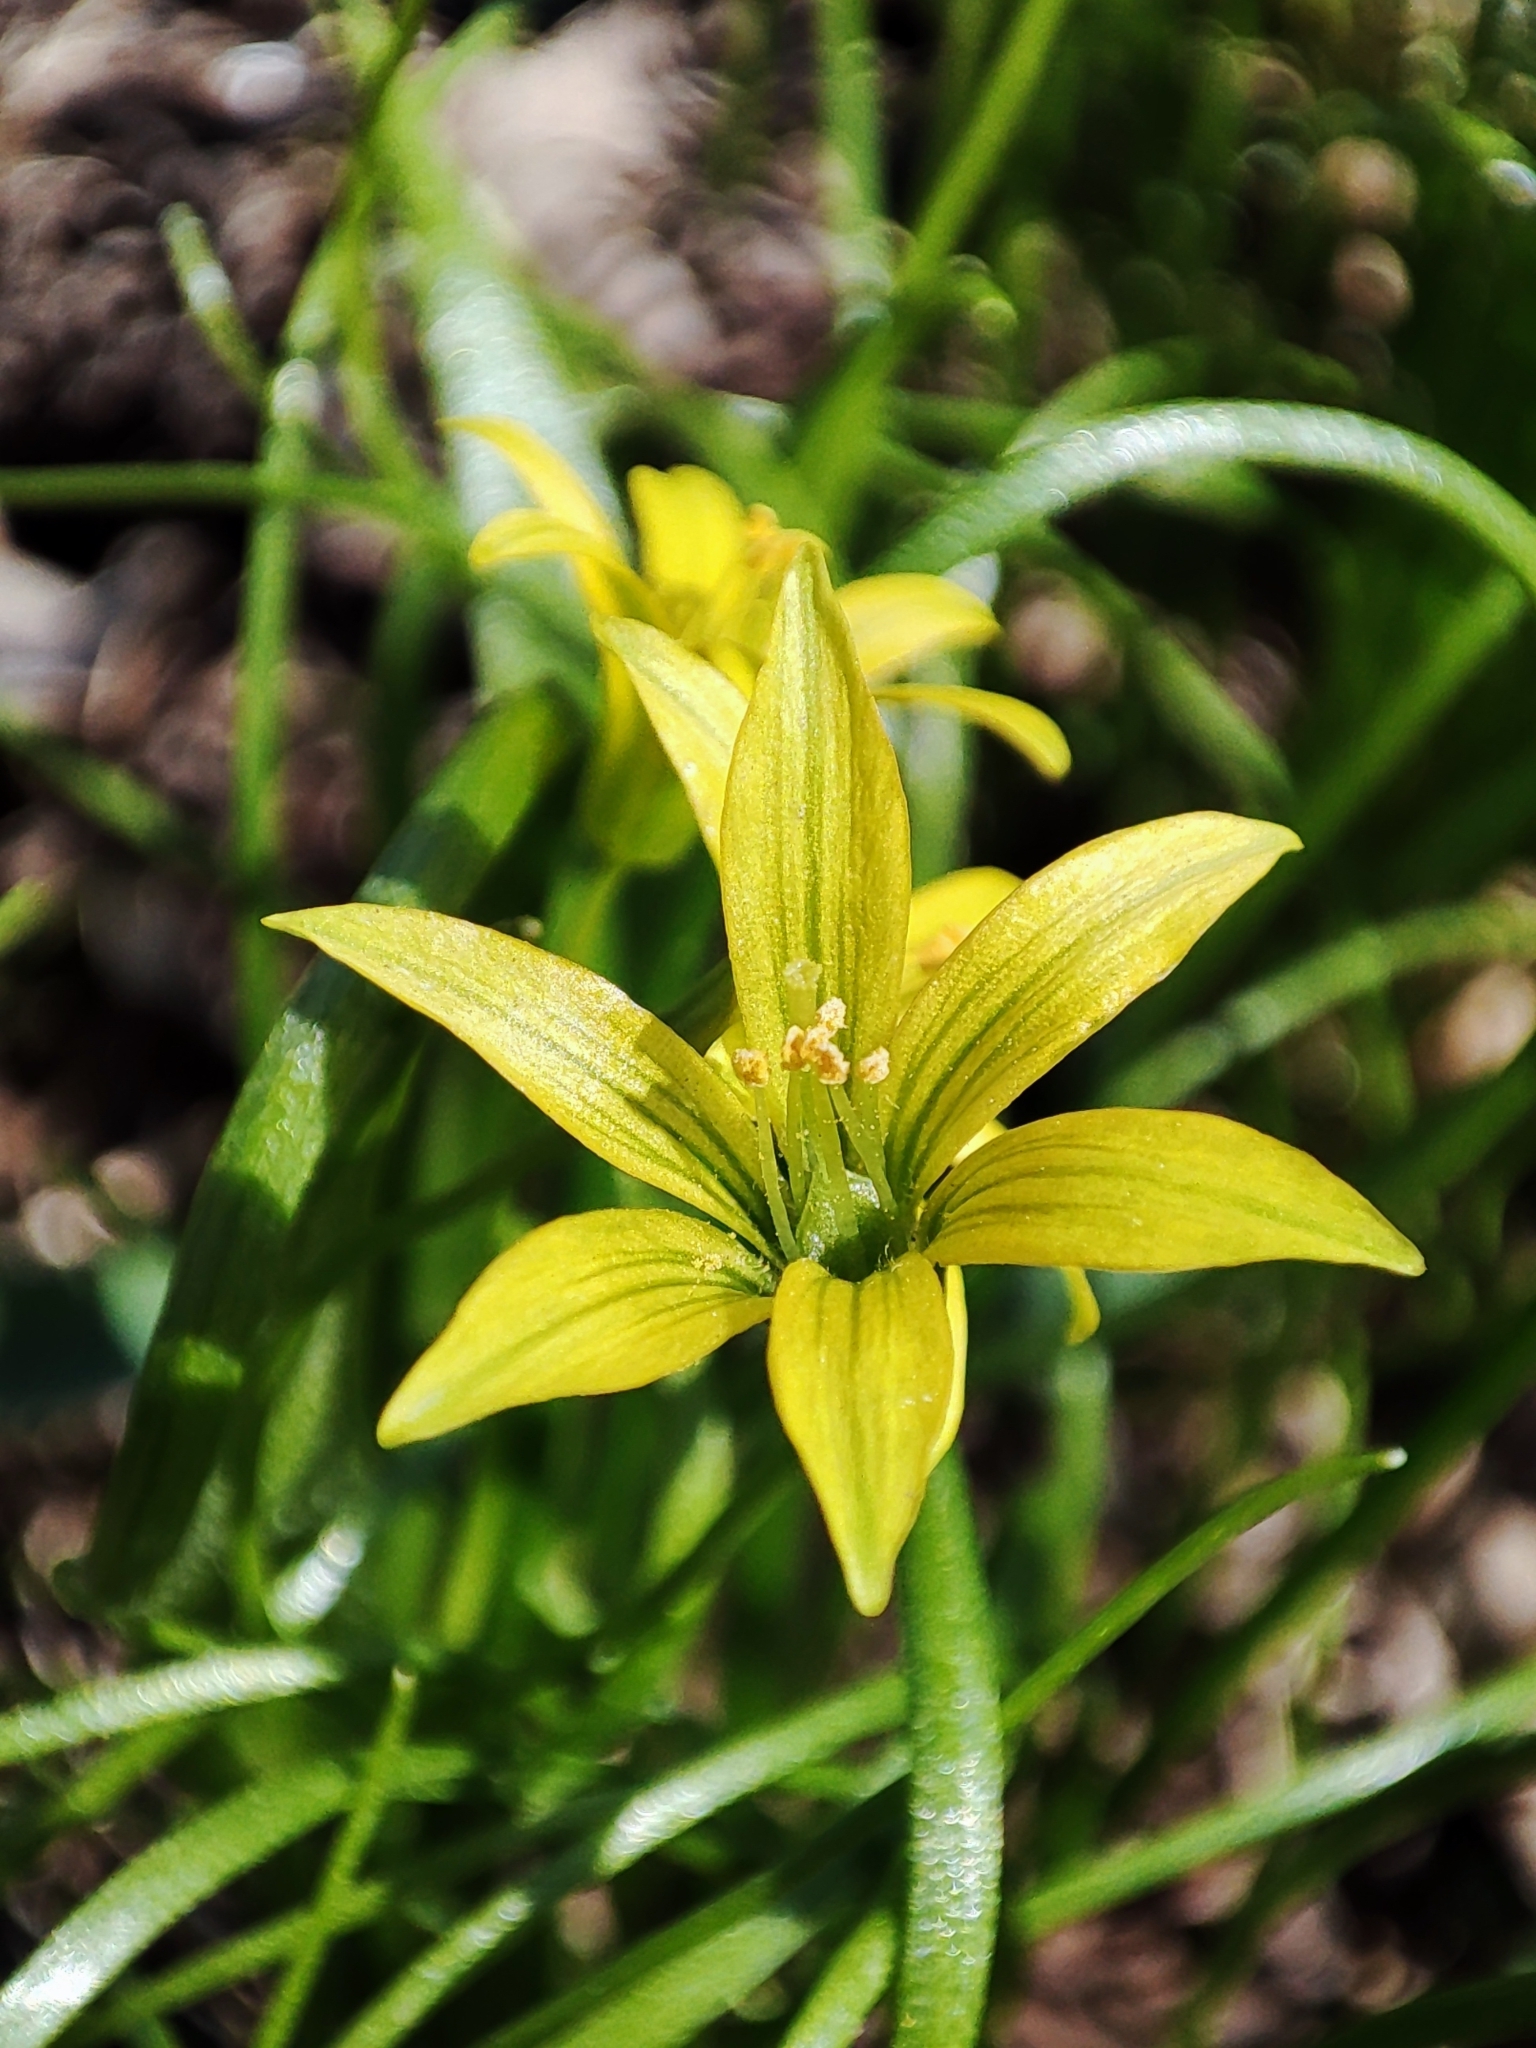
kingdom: Plantae
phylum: Tracheophyta
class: Liliopsida
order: Liliales
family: Liliaceae
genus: Gagea
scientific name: Gagea minima
